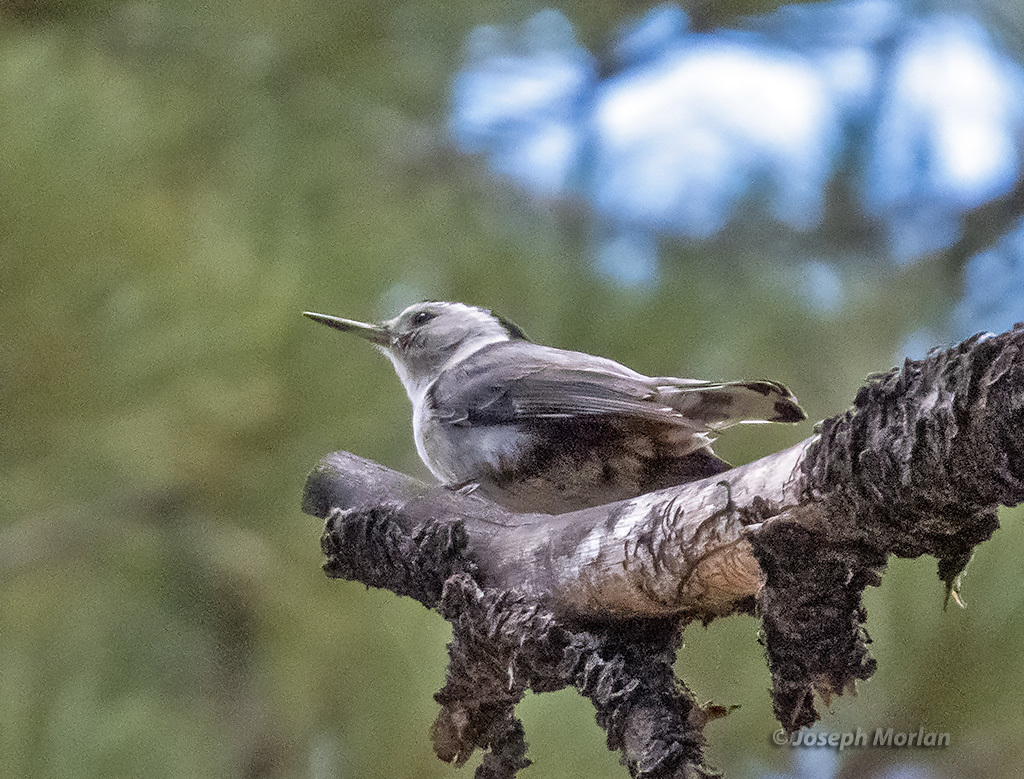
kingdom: Animalia
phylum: Chordata
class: Aves
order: Passeriformes
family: Sittidae
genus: Sitta
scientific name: Sitta carolinensis
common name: White-breasted nuthatch
